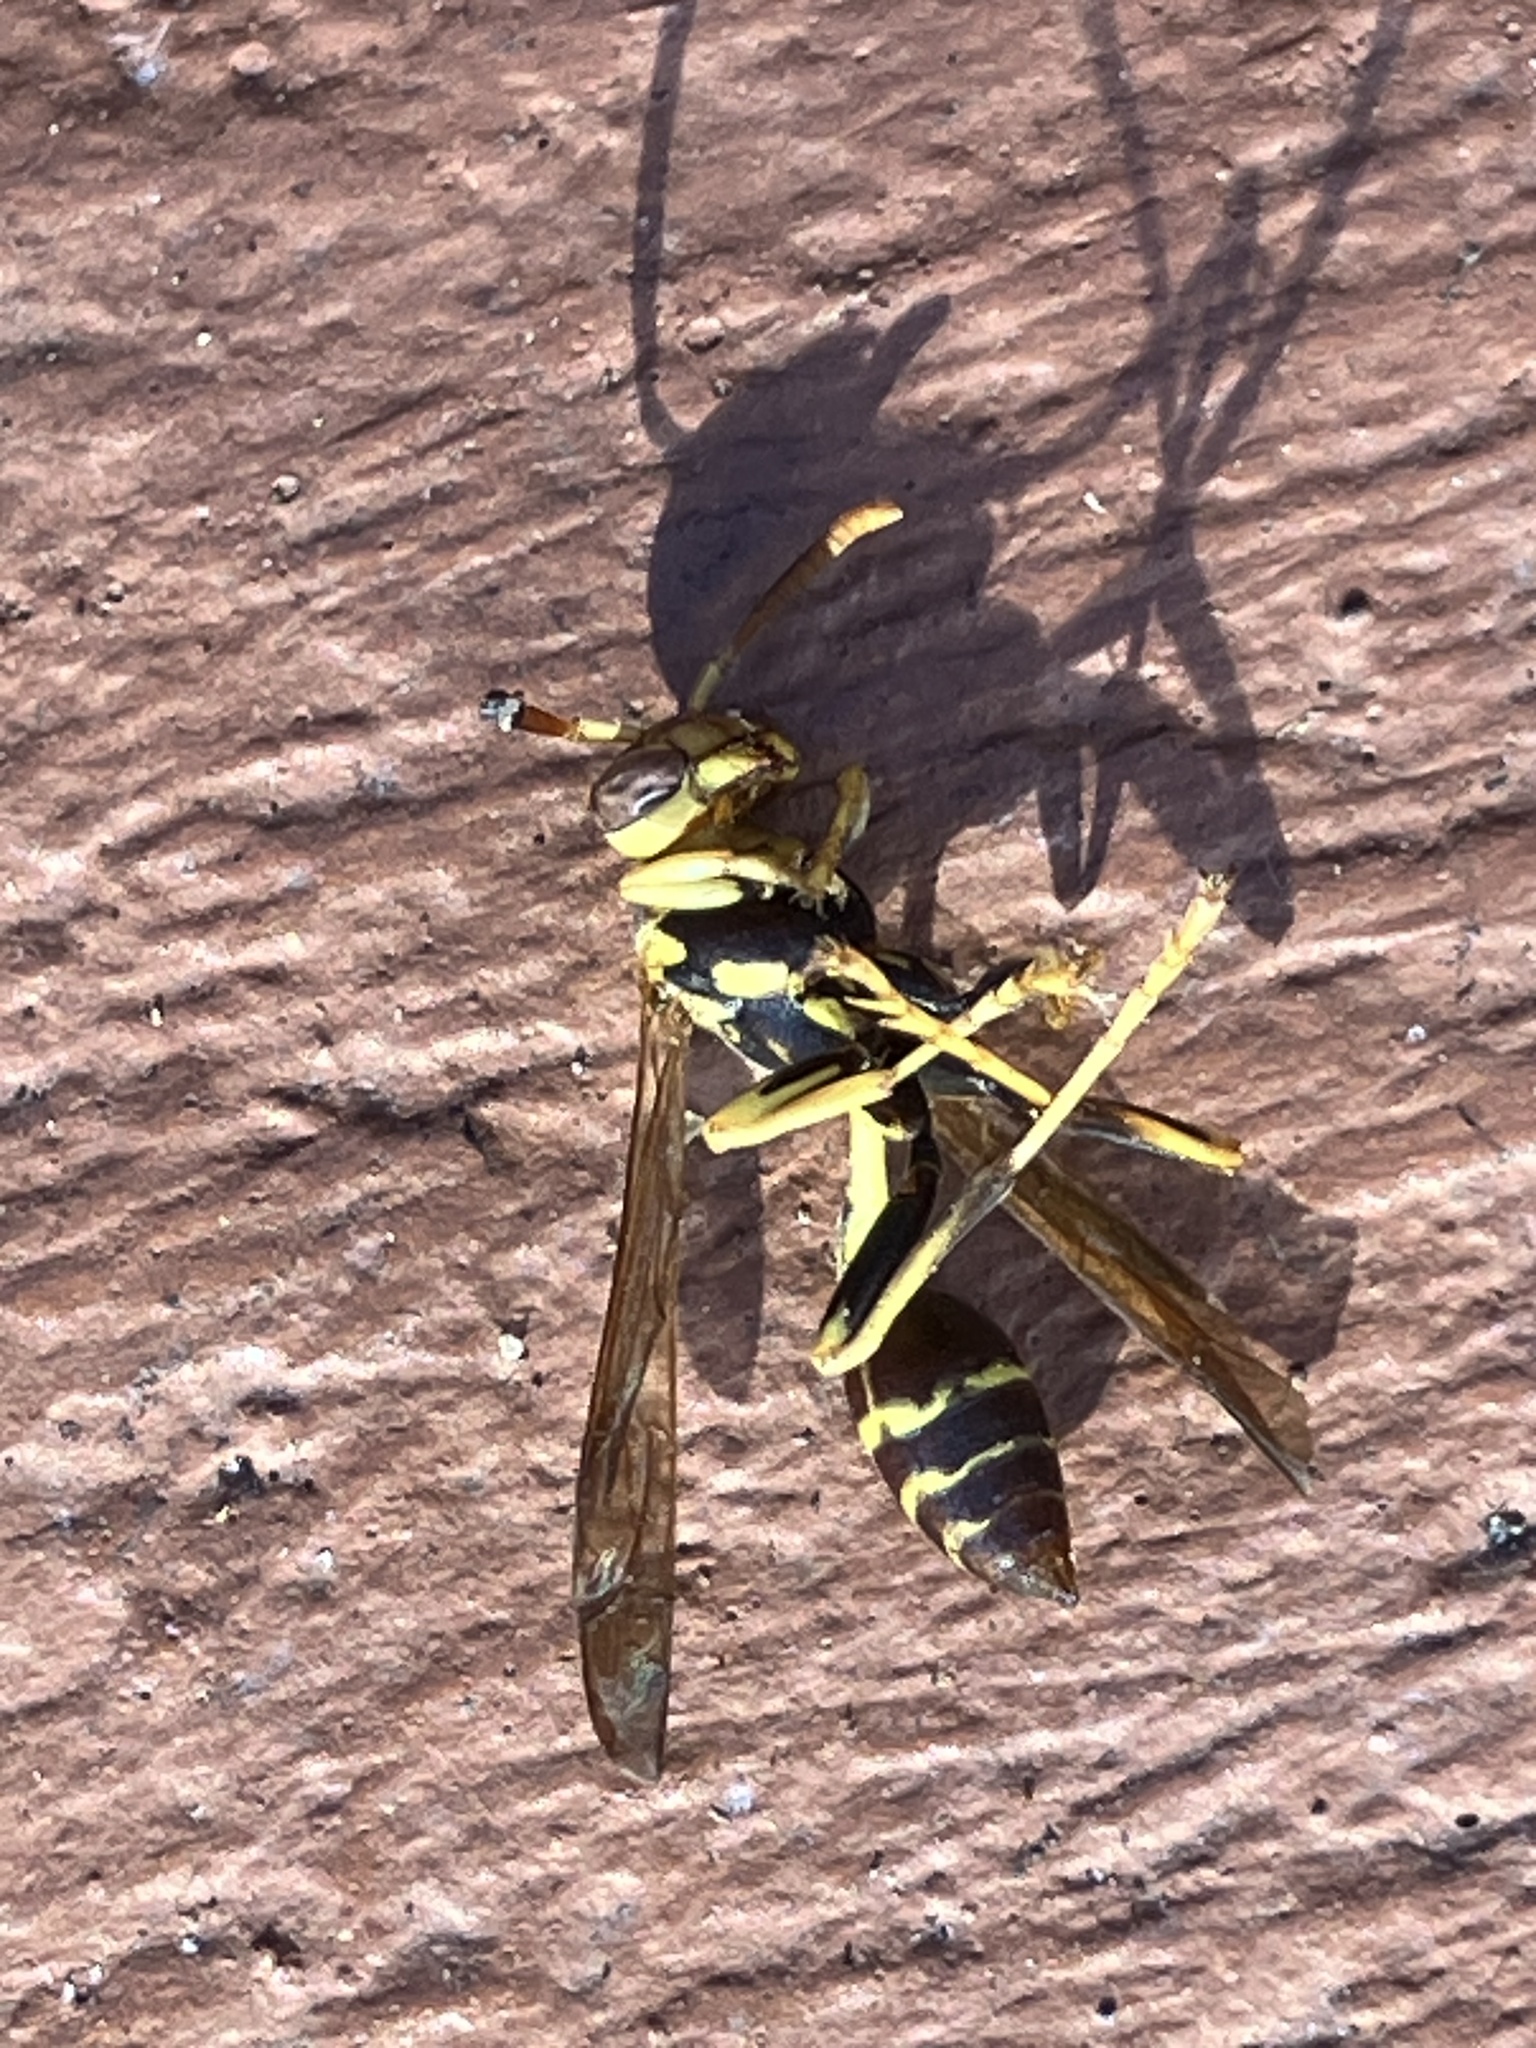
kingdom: Animalia
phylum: Arthropoda
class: Insecta
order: Hymenoptera
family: Vespidae
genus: Mischocyttarus
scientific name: Mischocyttarus mexicanus
